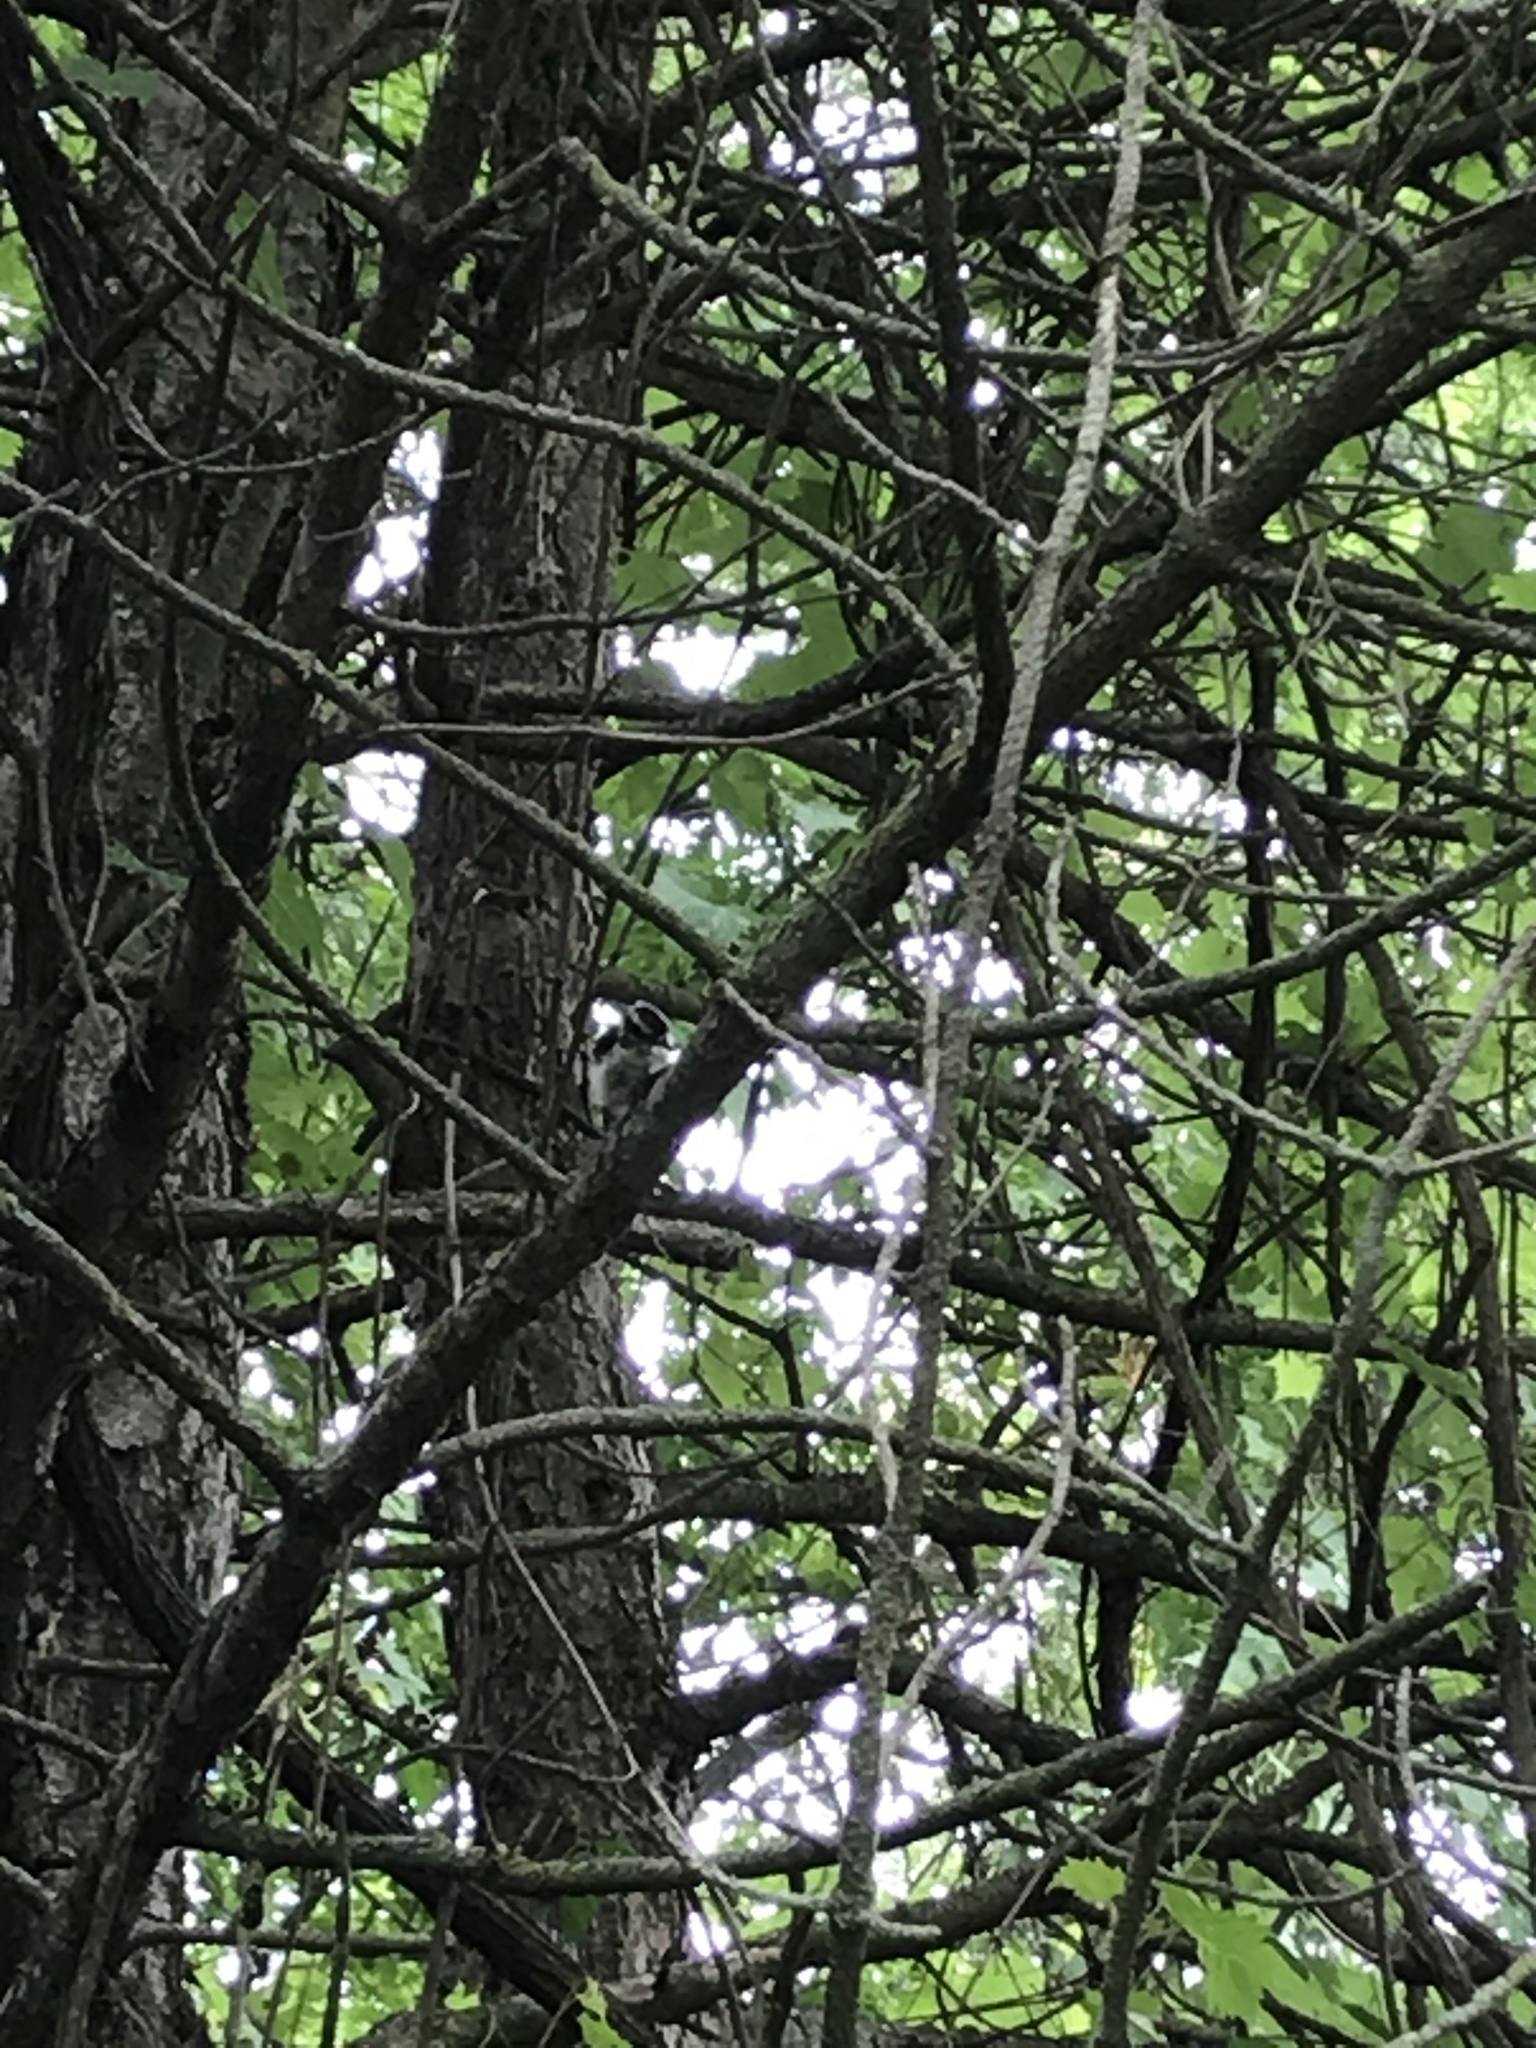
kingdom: Animalia
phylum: Chordata
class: Aves
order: Piciformes
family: Picidae
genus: Dryobates
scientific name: Dryobates pubescens
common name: Downy woodpecker
